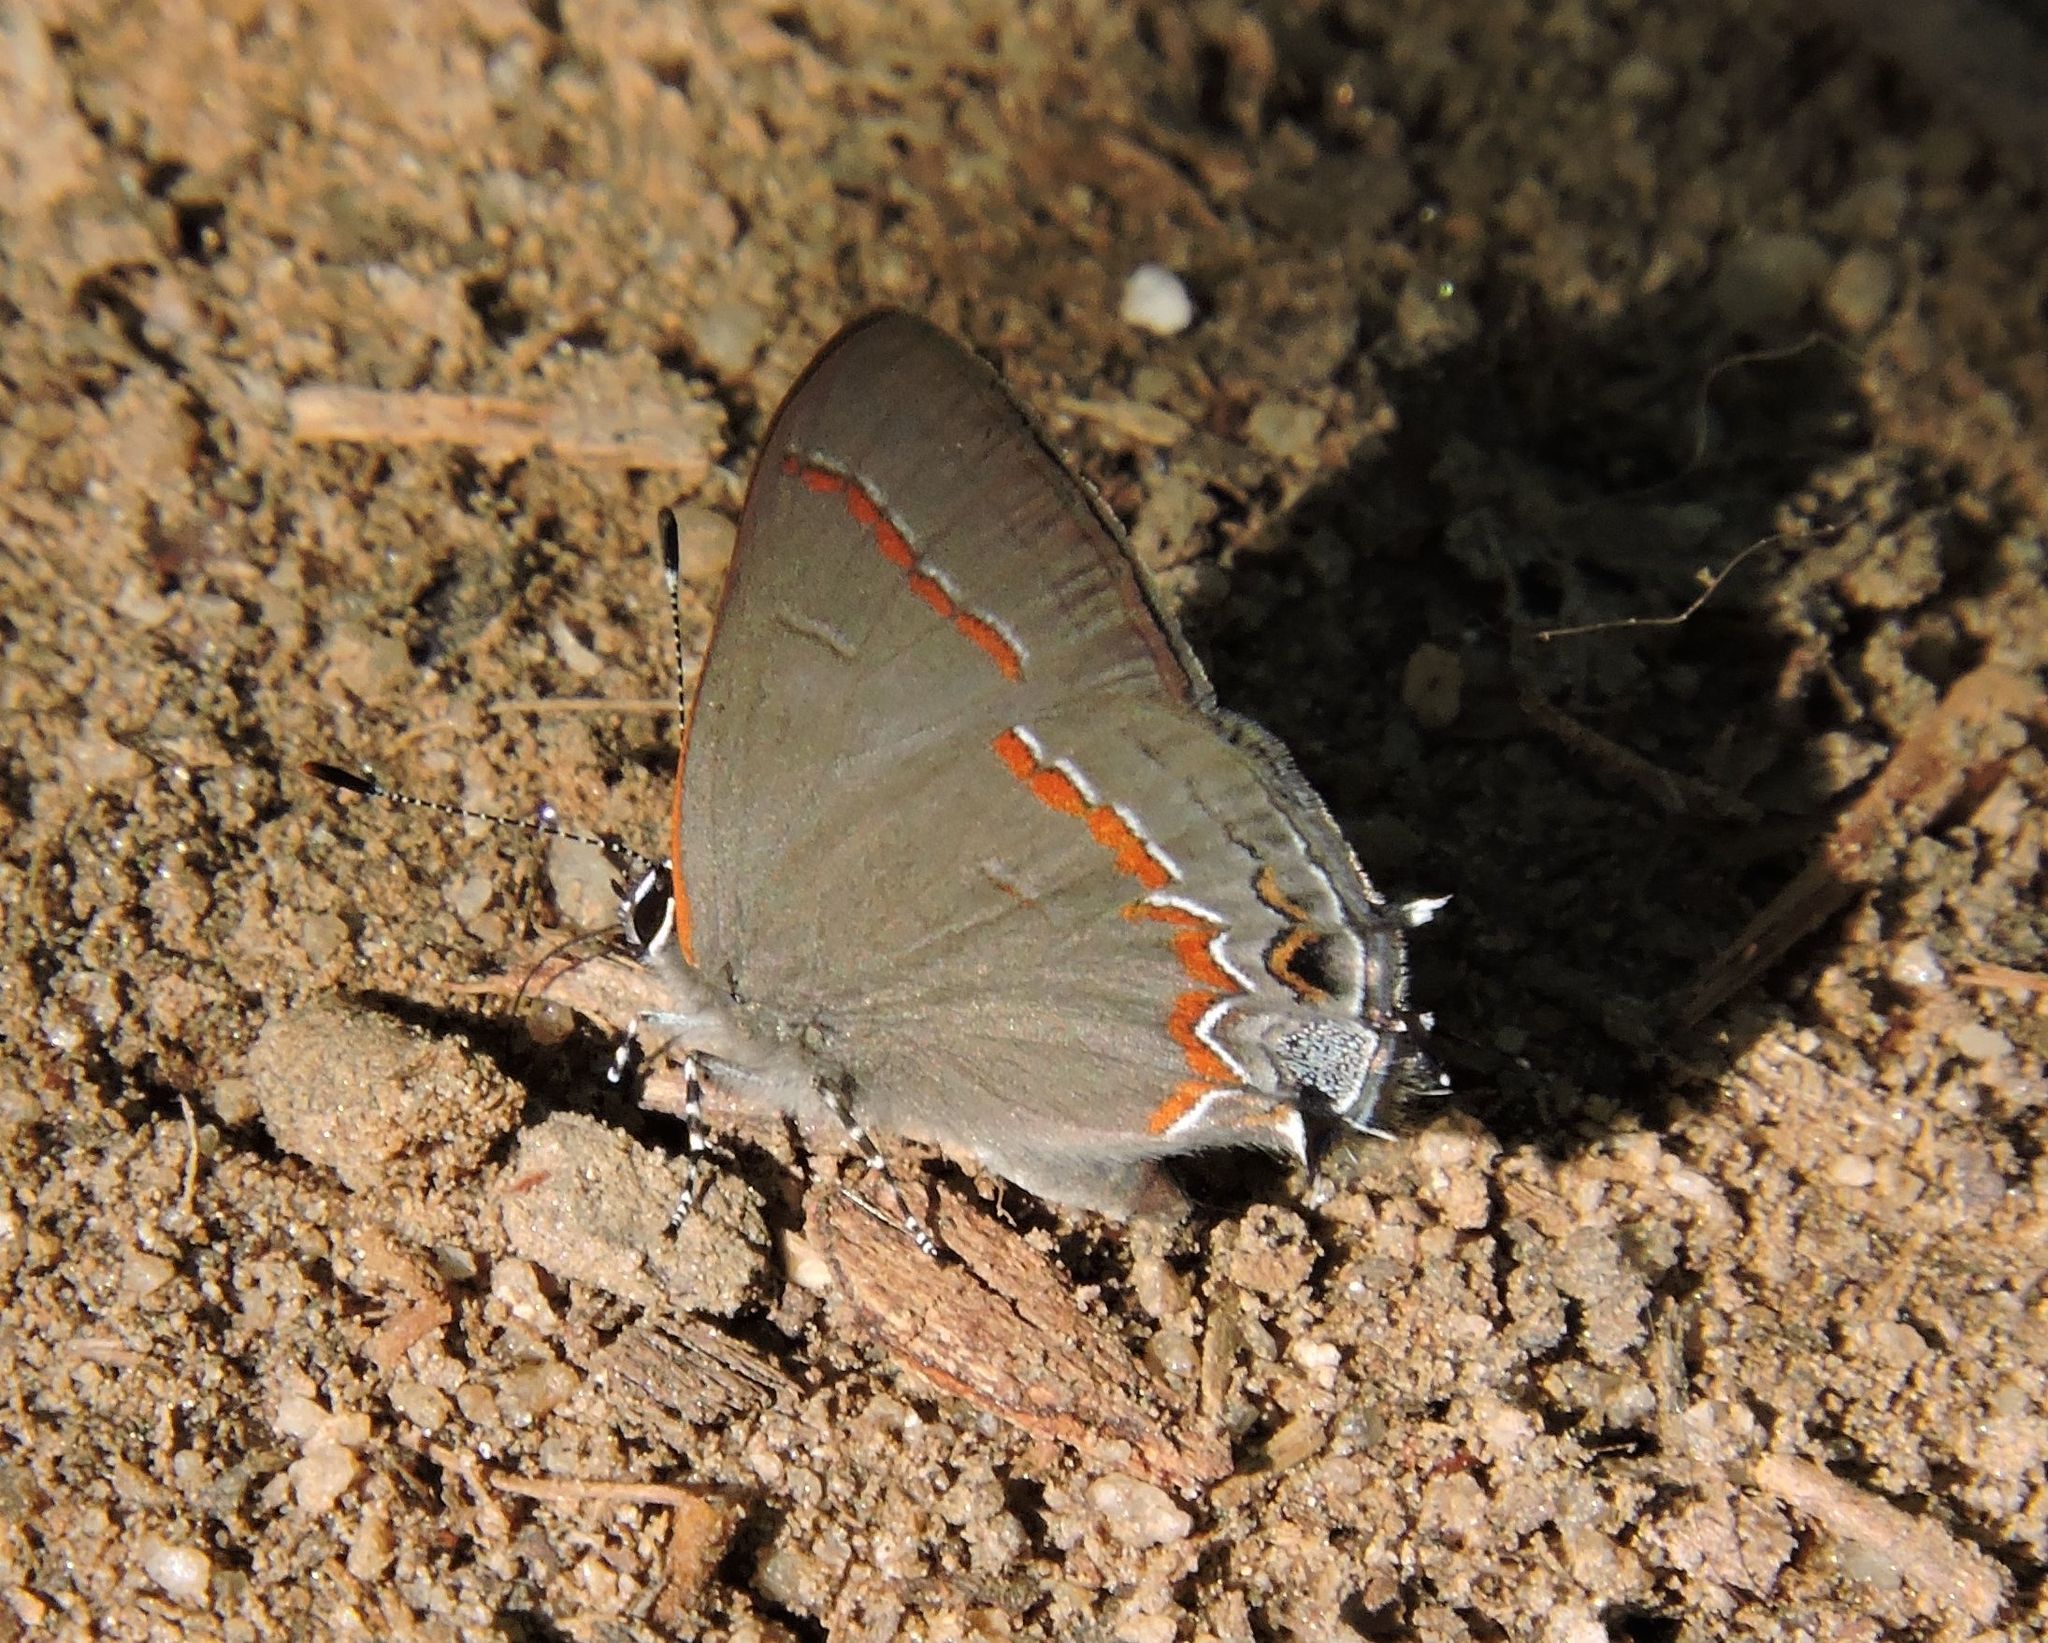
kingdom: Animalia
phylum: Arthropoda
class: Insecta
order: Lepidoptera
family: Lycaenidae
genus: Calycopis
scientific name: Calycopis cecrops
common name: Red-banded hairstreak
